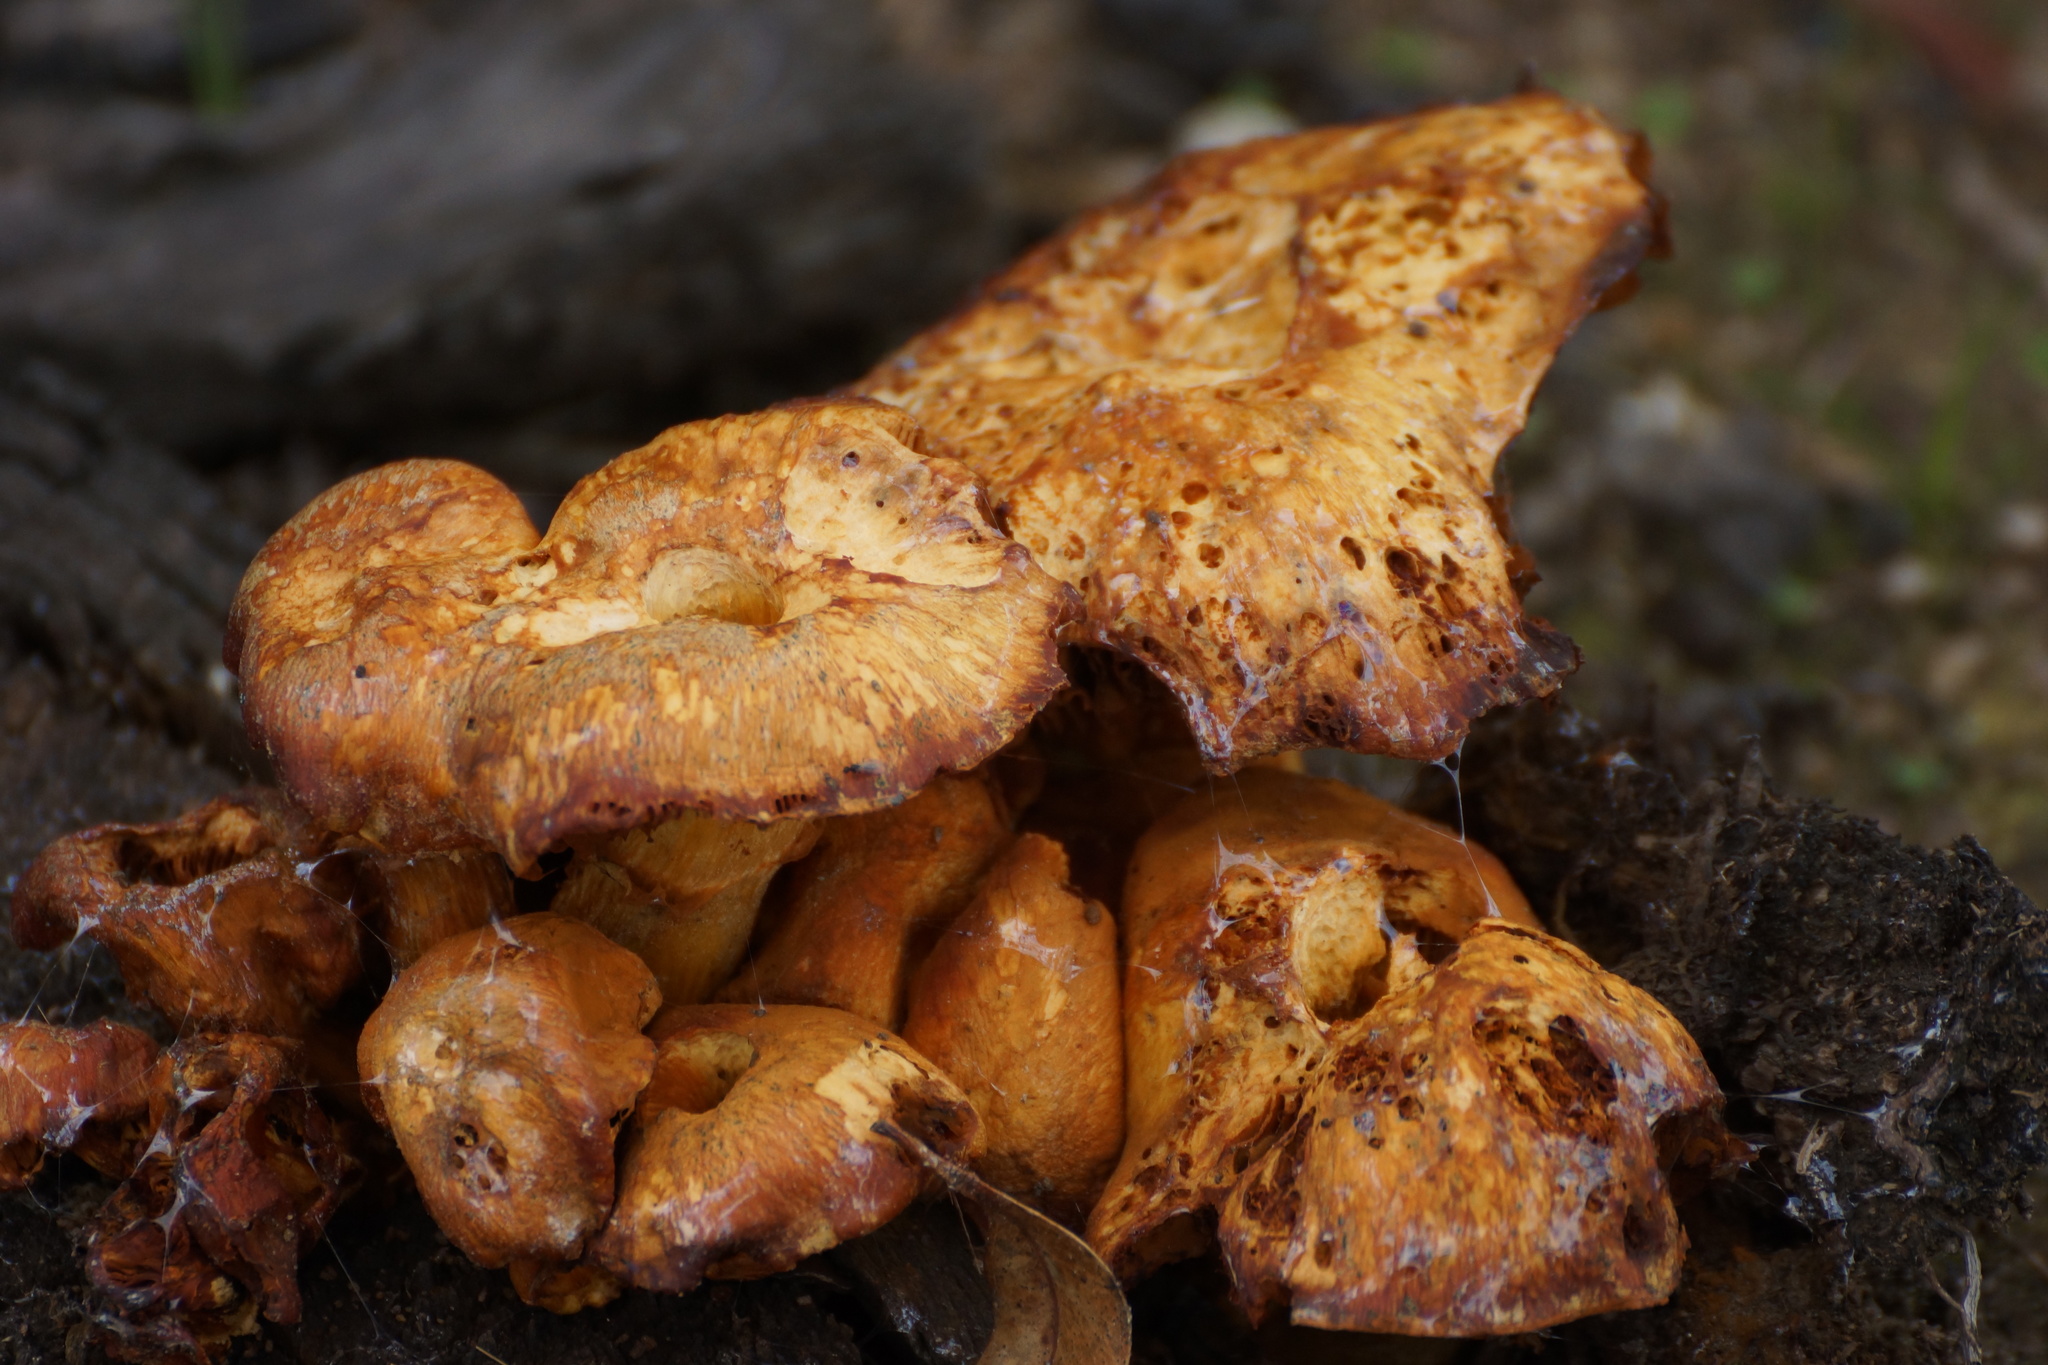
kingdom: Fungi
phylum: Basidiomycota
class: Agaricomycetes
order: Agaricales
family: Hymenogastraceae
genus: Gymnopilus
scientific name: Gymnopilus junonius
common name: Spectacular rustgill
